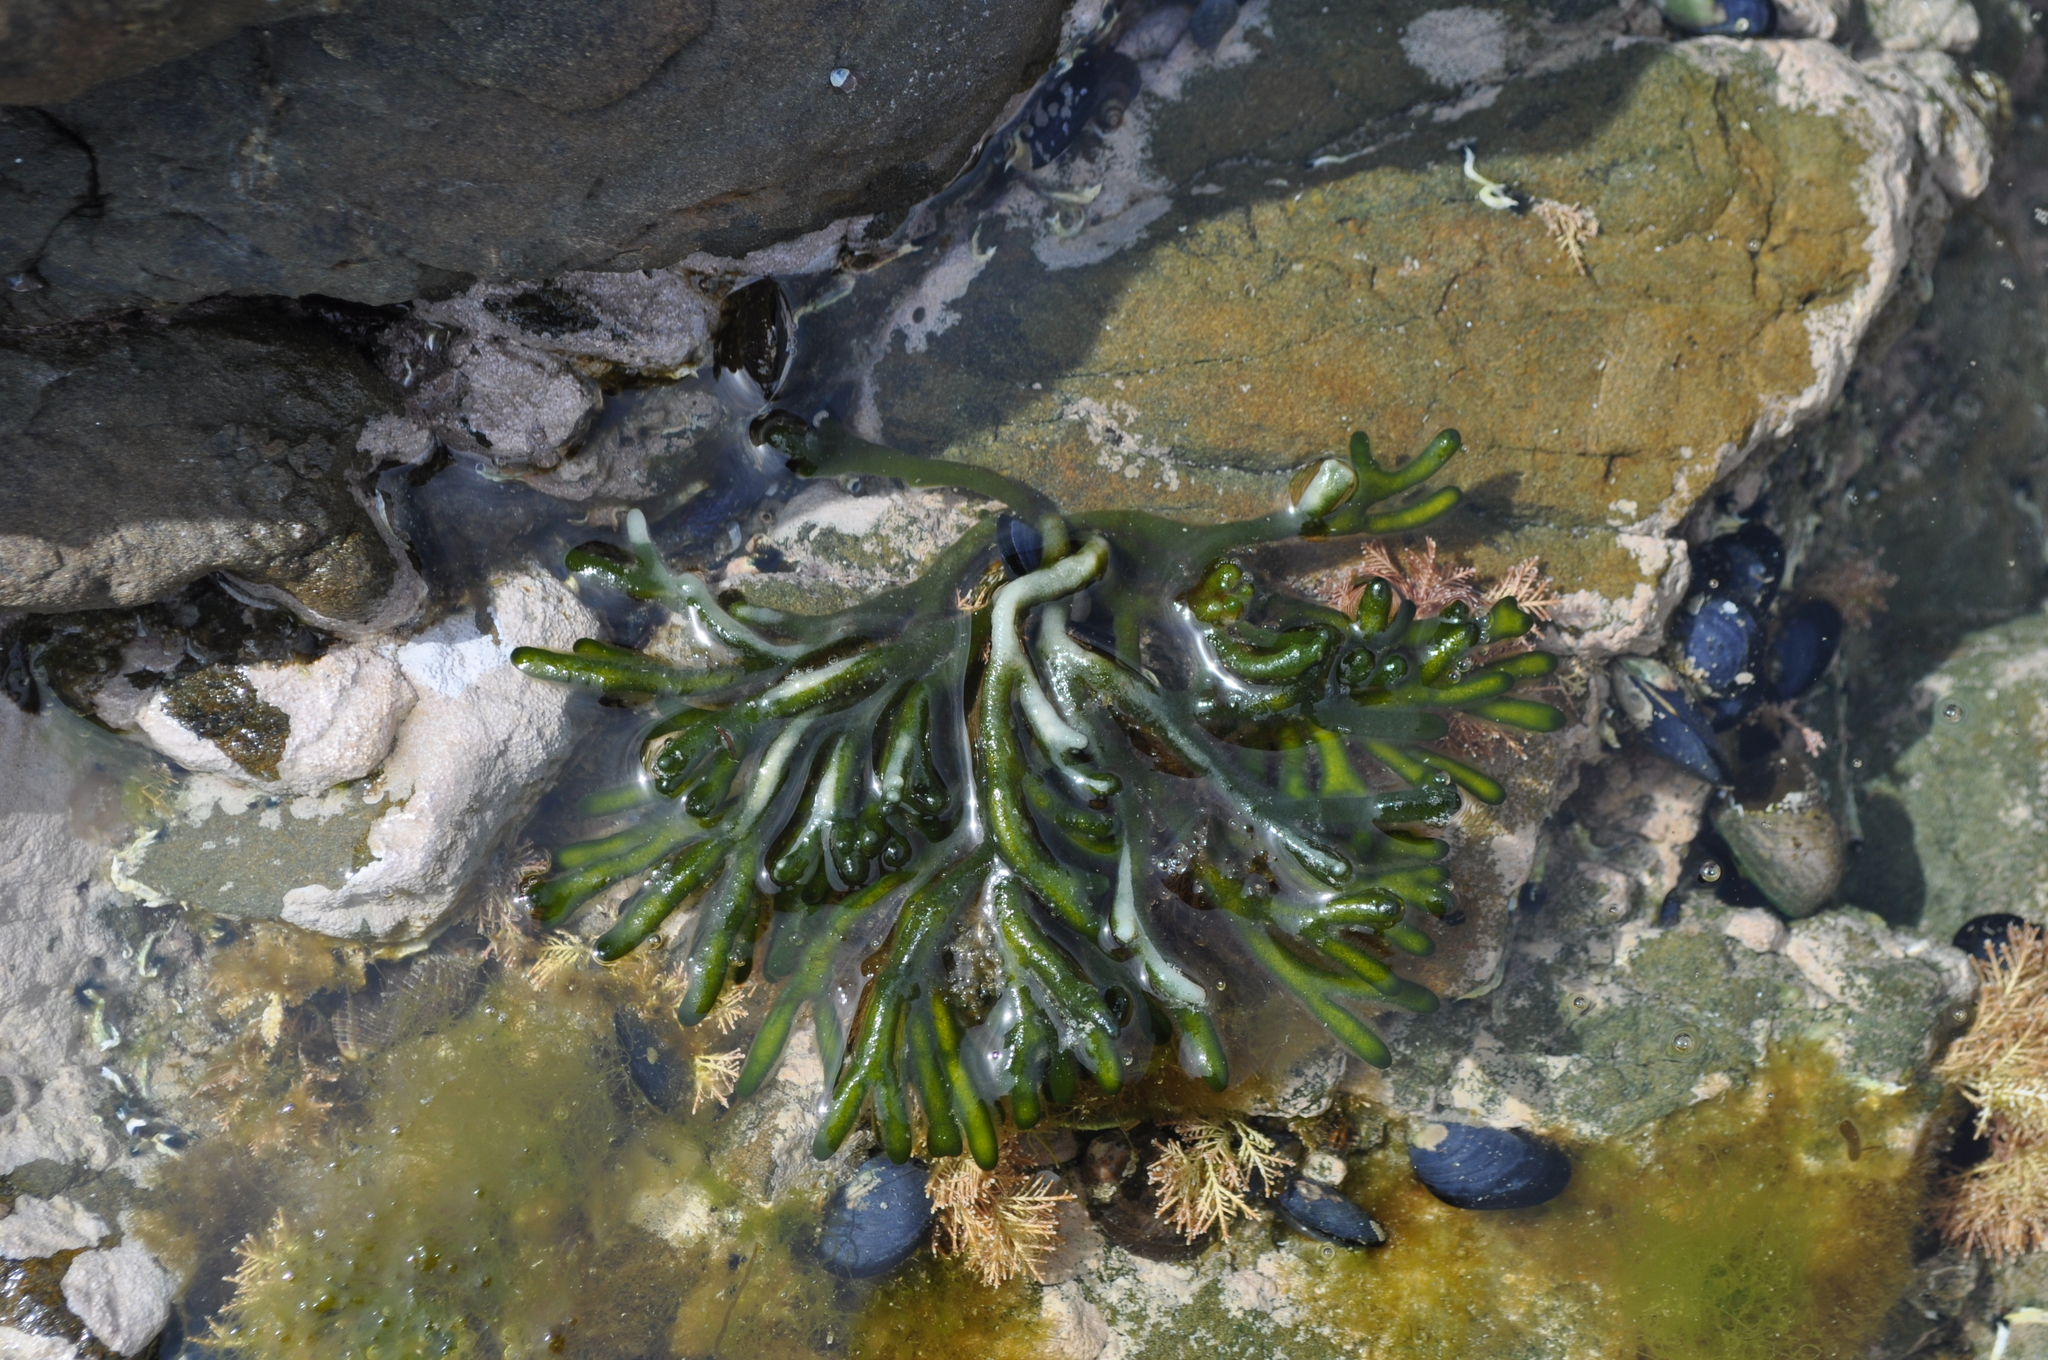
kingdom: Plantae
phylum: Chlorophyta
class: Ulvophyceae
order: Bryopsidales
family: Codiaceae
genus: Codium
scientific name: Codium fragile
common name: Dead man's fingers
